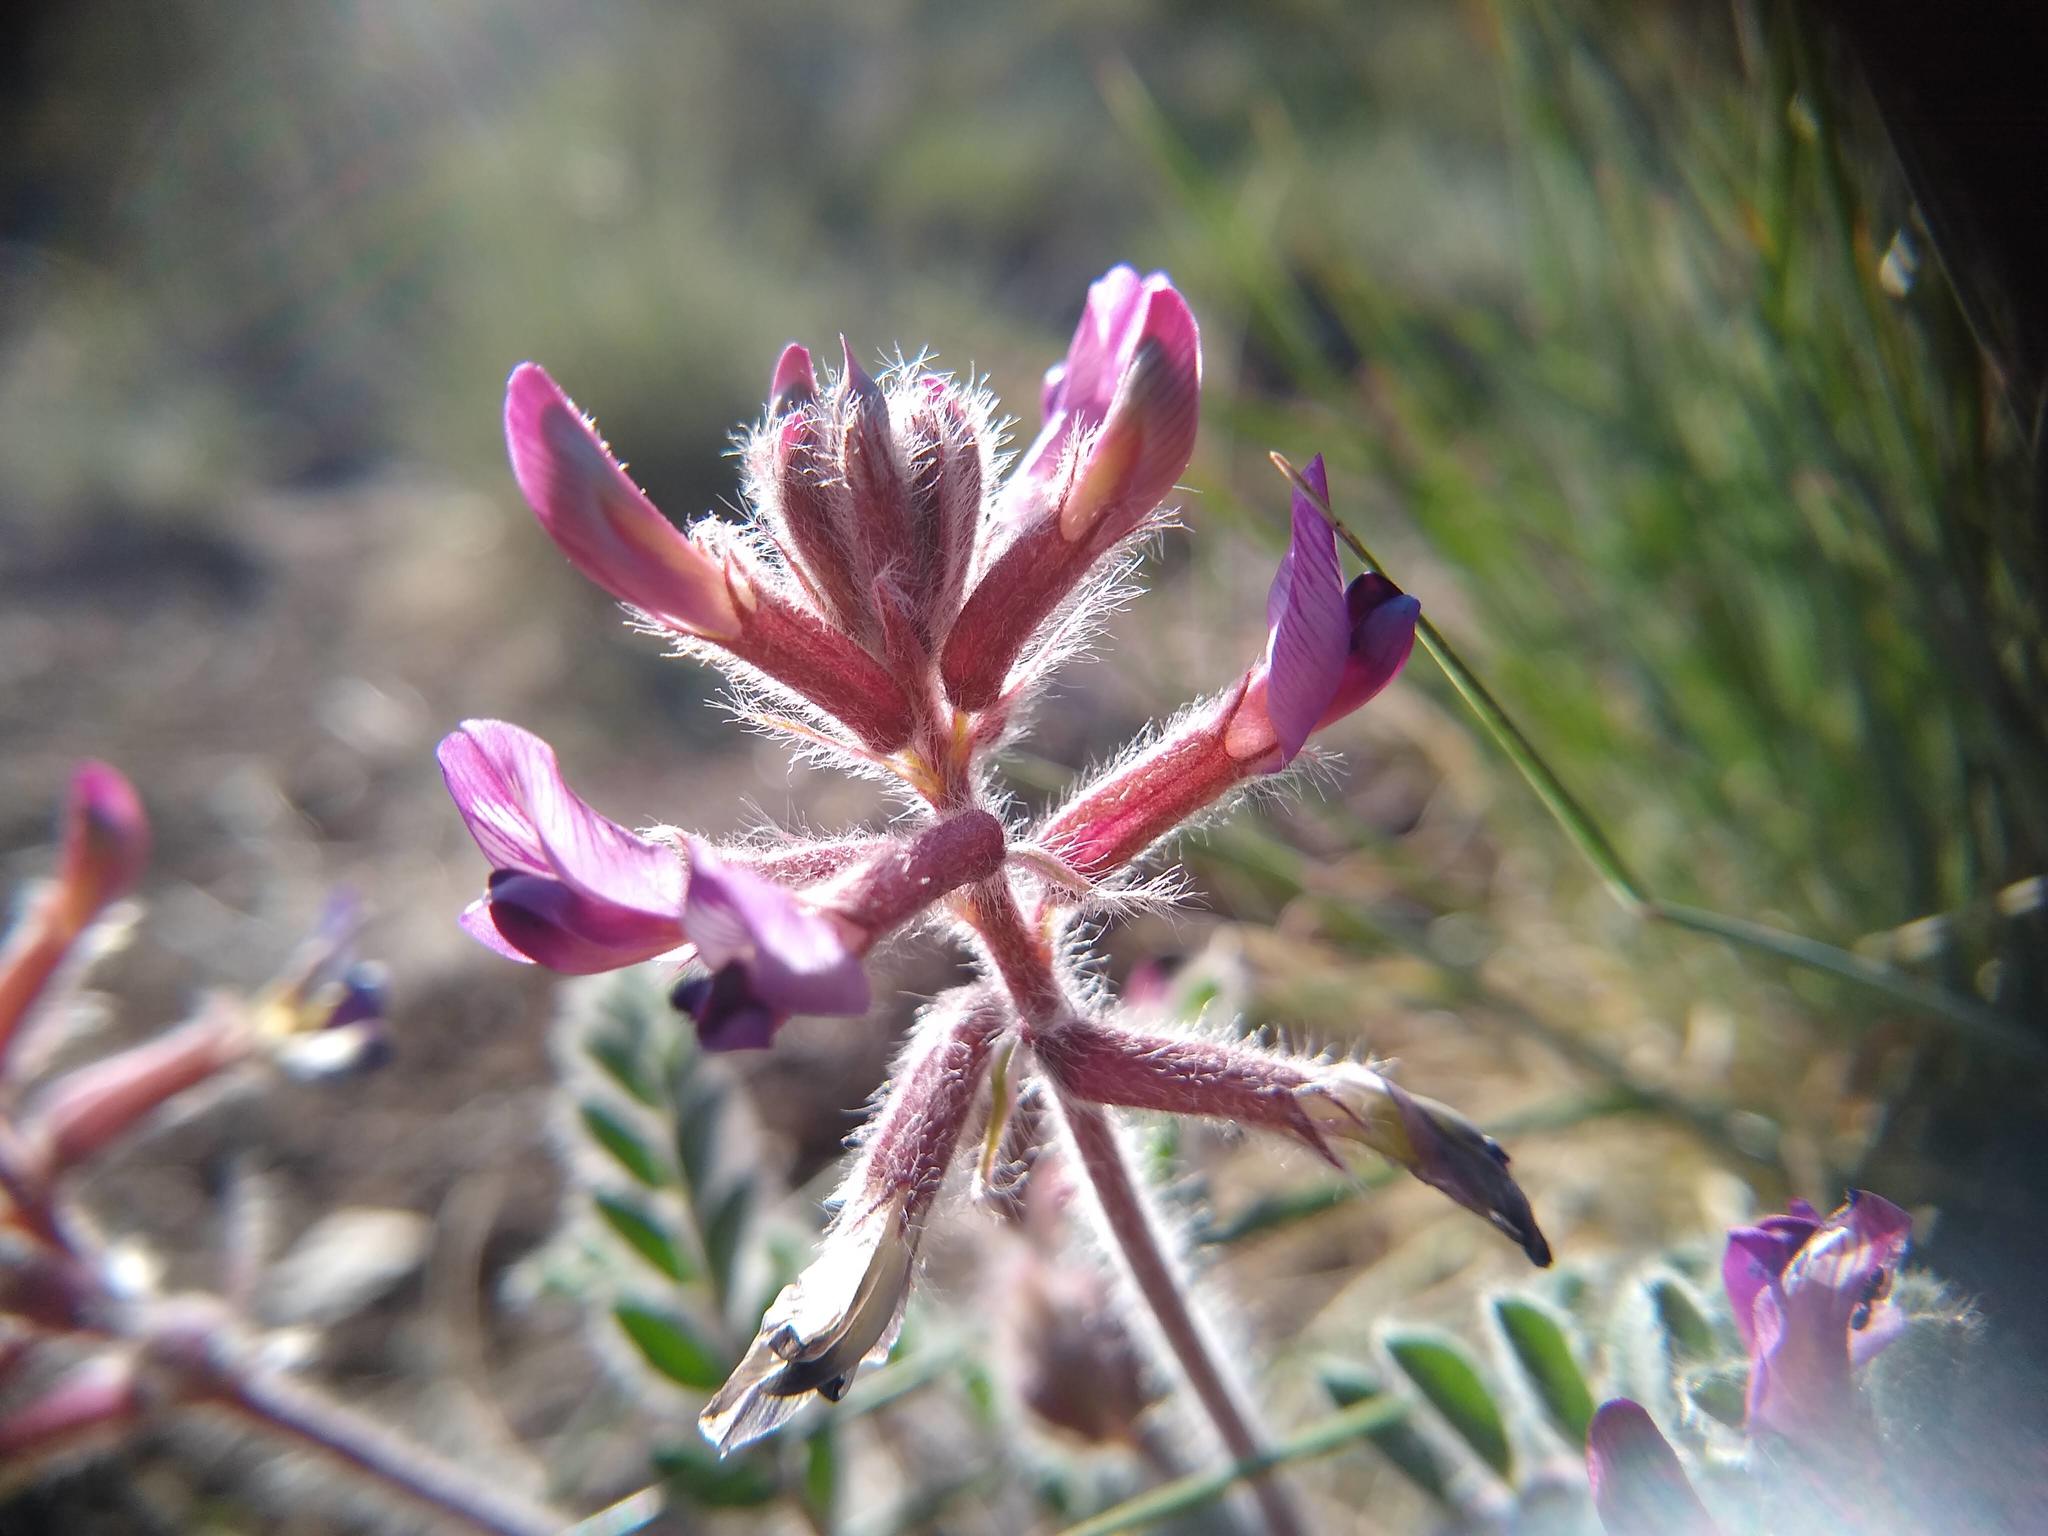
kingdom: Plantae
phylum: Tracheophyta
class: Magnoliopsida
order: Fabales
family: Fabaceae
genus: Astragalus
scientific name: Astragalus malacus
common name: Shaggy milk-vetch
